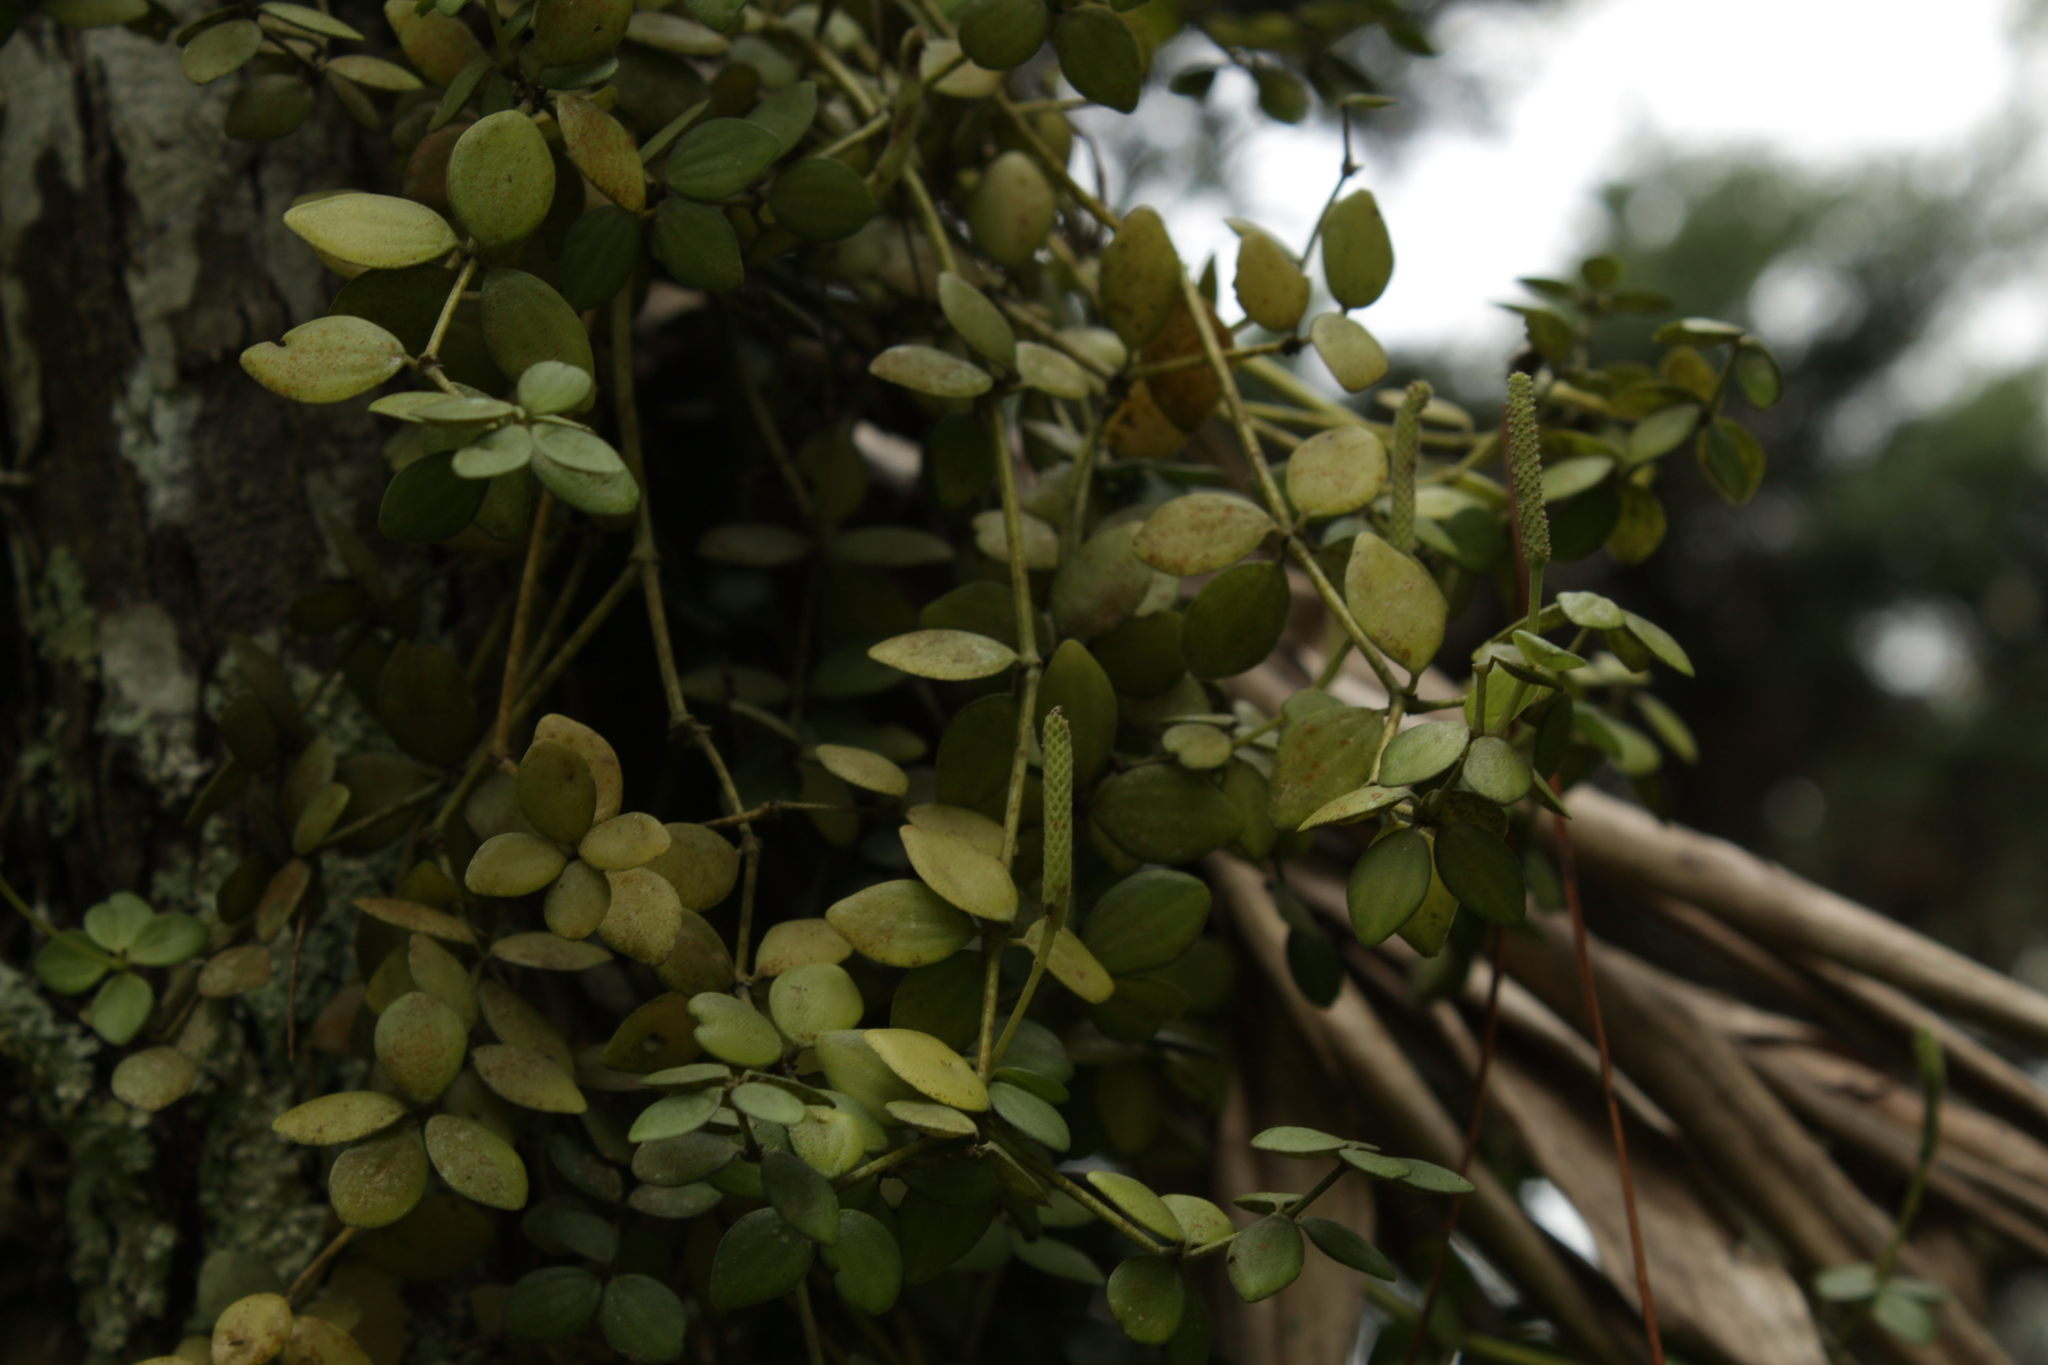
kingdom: Plantae
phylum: Tracheophyta
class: Magnoliopsida
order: Piperales
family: Piperaceae
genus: Peperomia
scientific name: Peperomia tetraphylla
